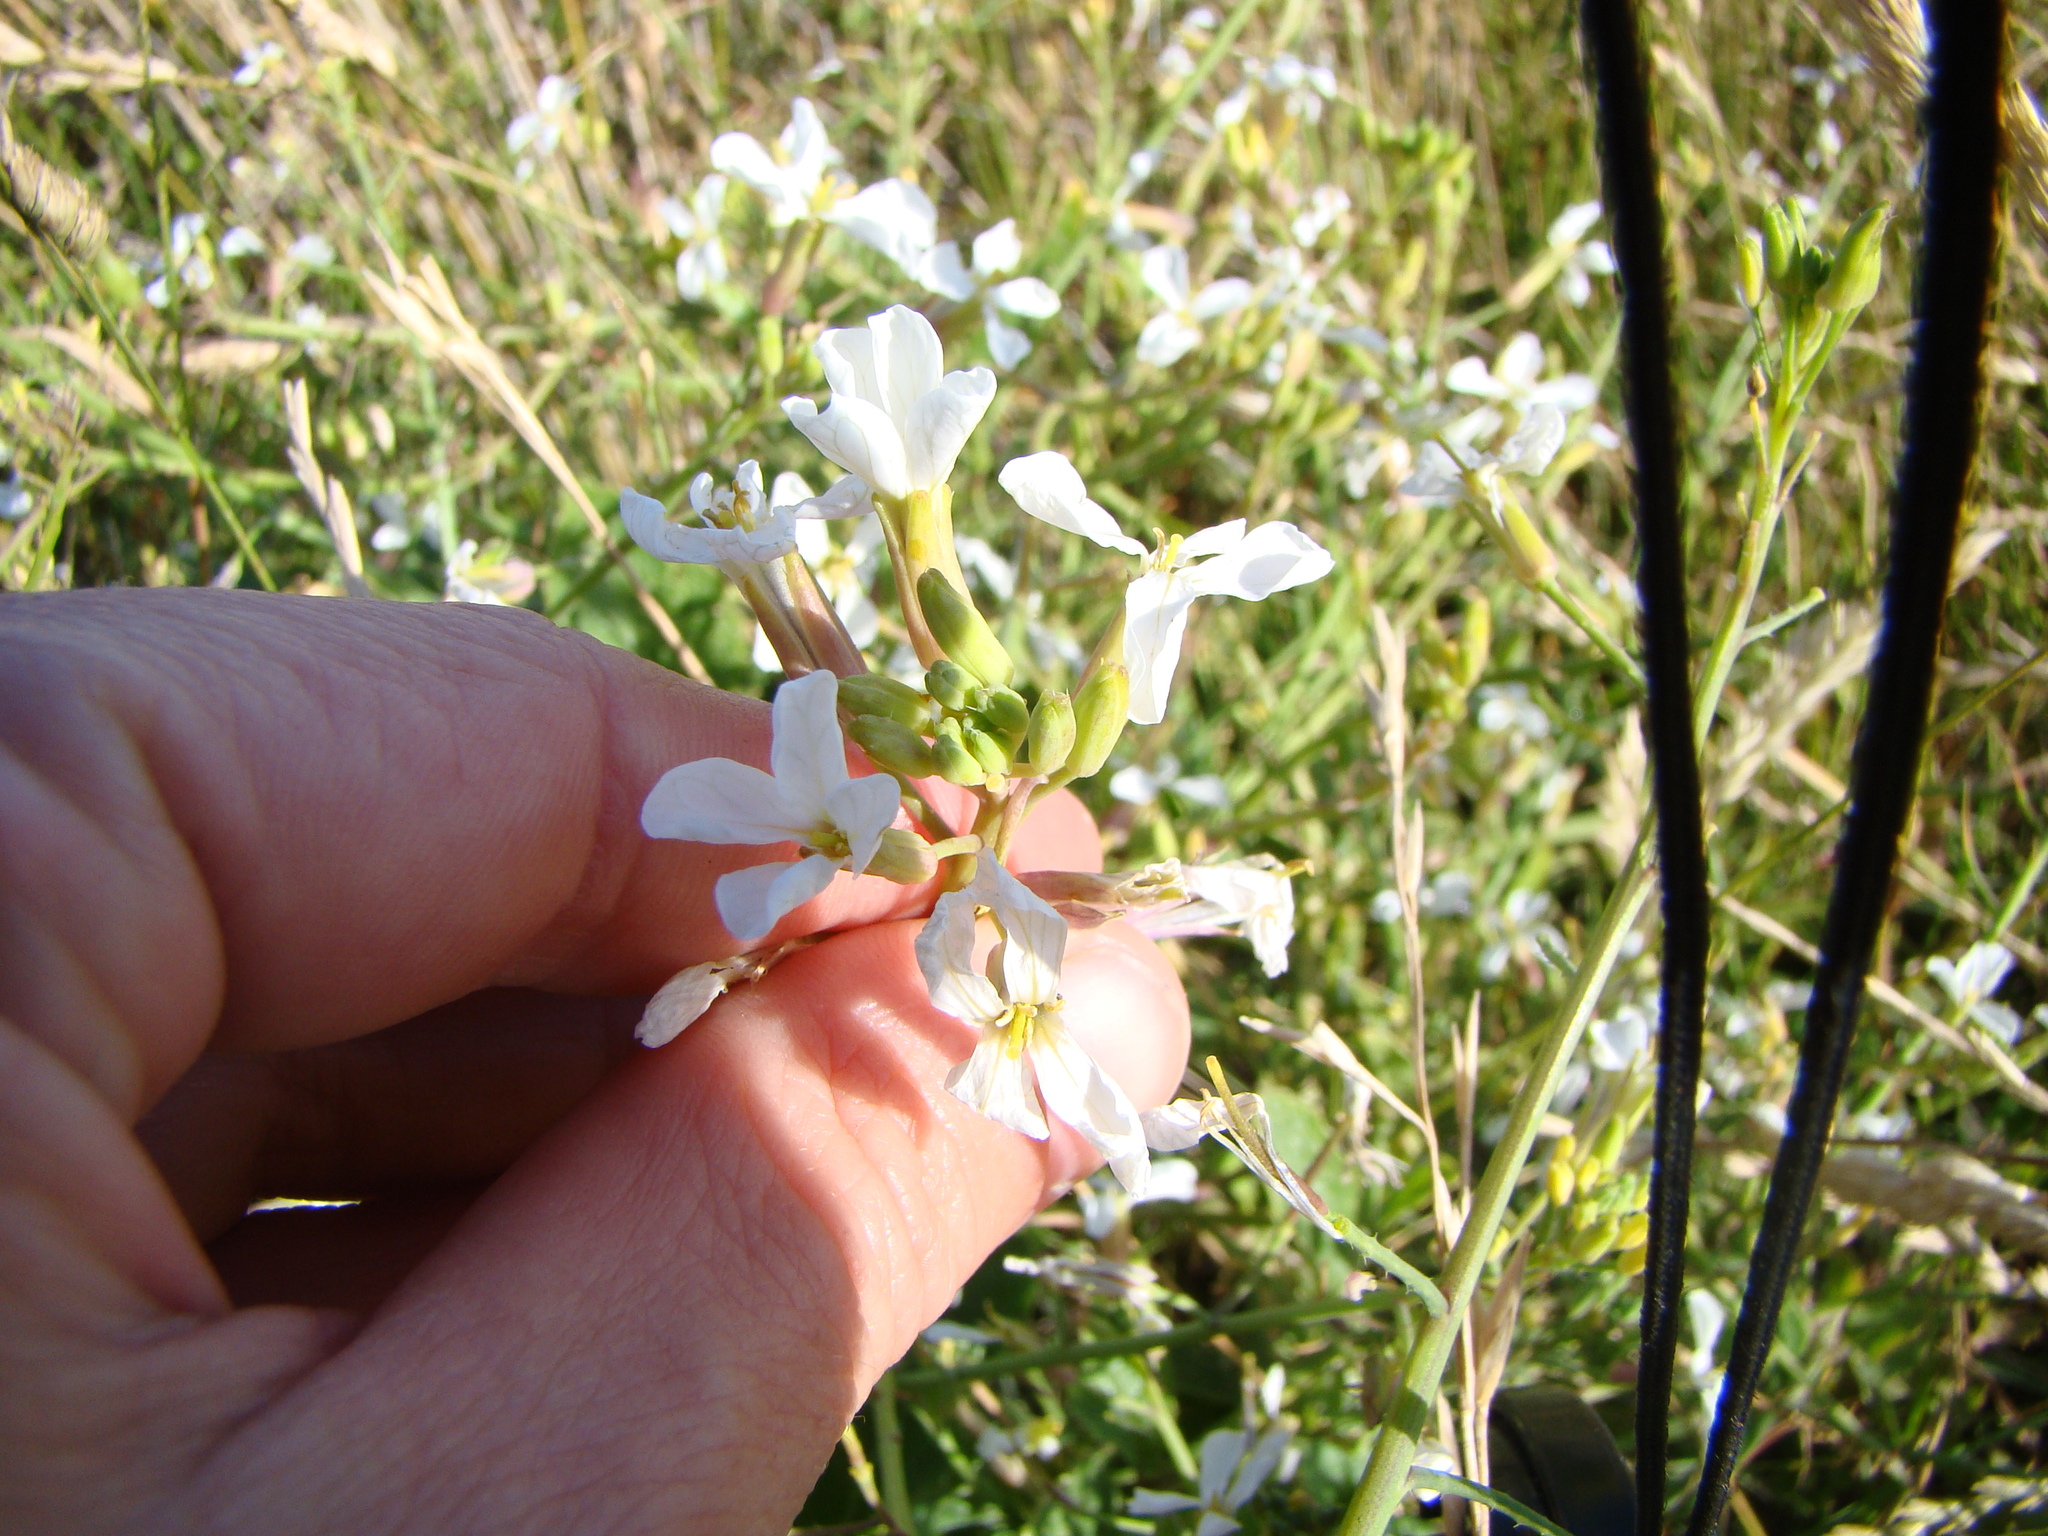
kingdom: Plantae
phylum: Tracheophyta
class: Magnoliopsida
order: Brassicales
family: Brassicaceae
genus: Raphanus
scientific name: Raphanus raphanistrum
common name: Wild radish
